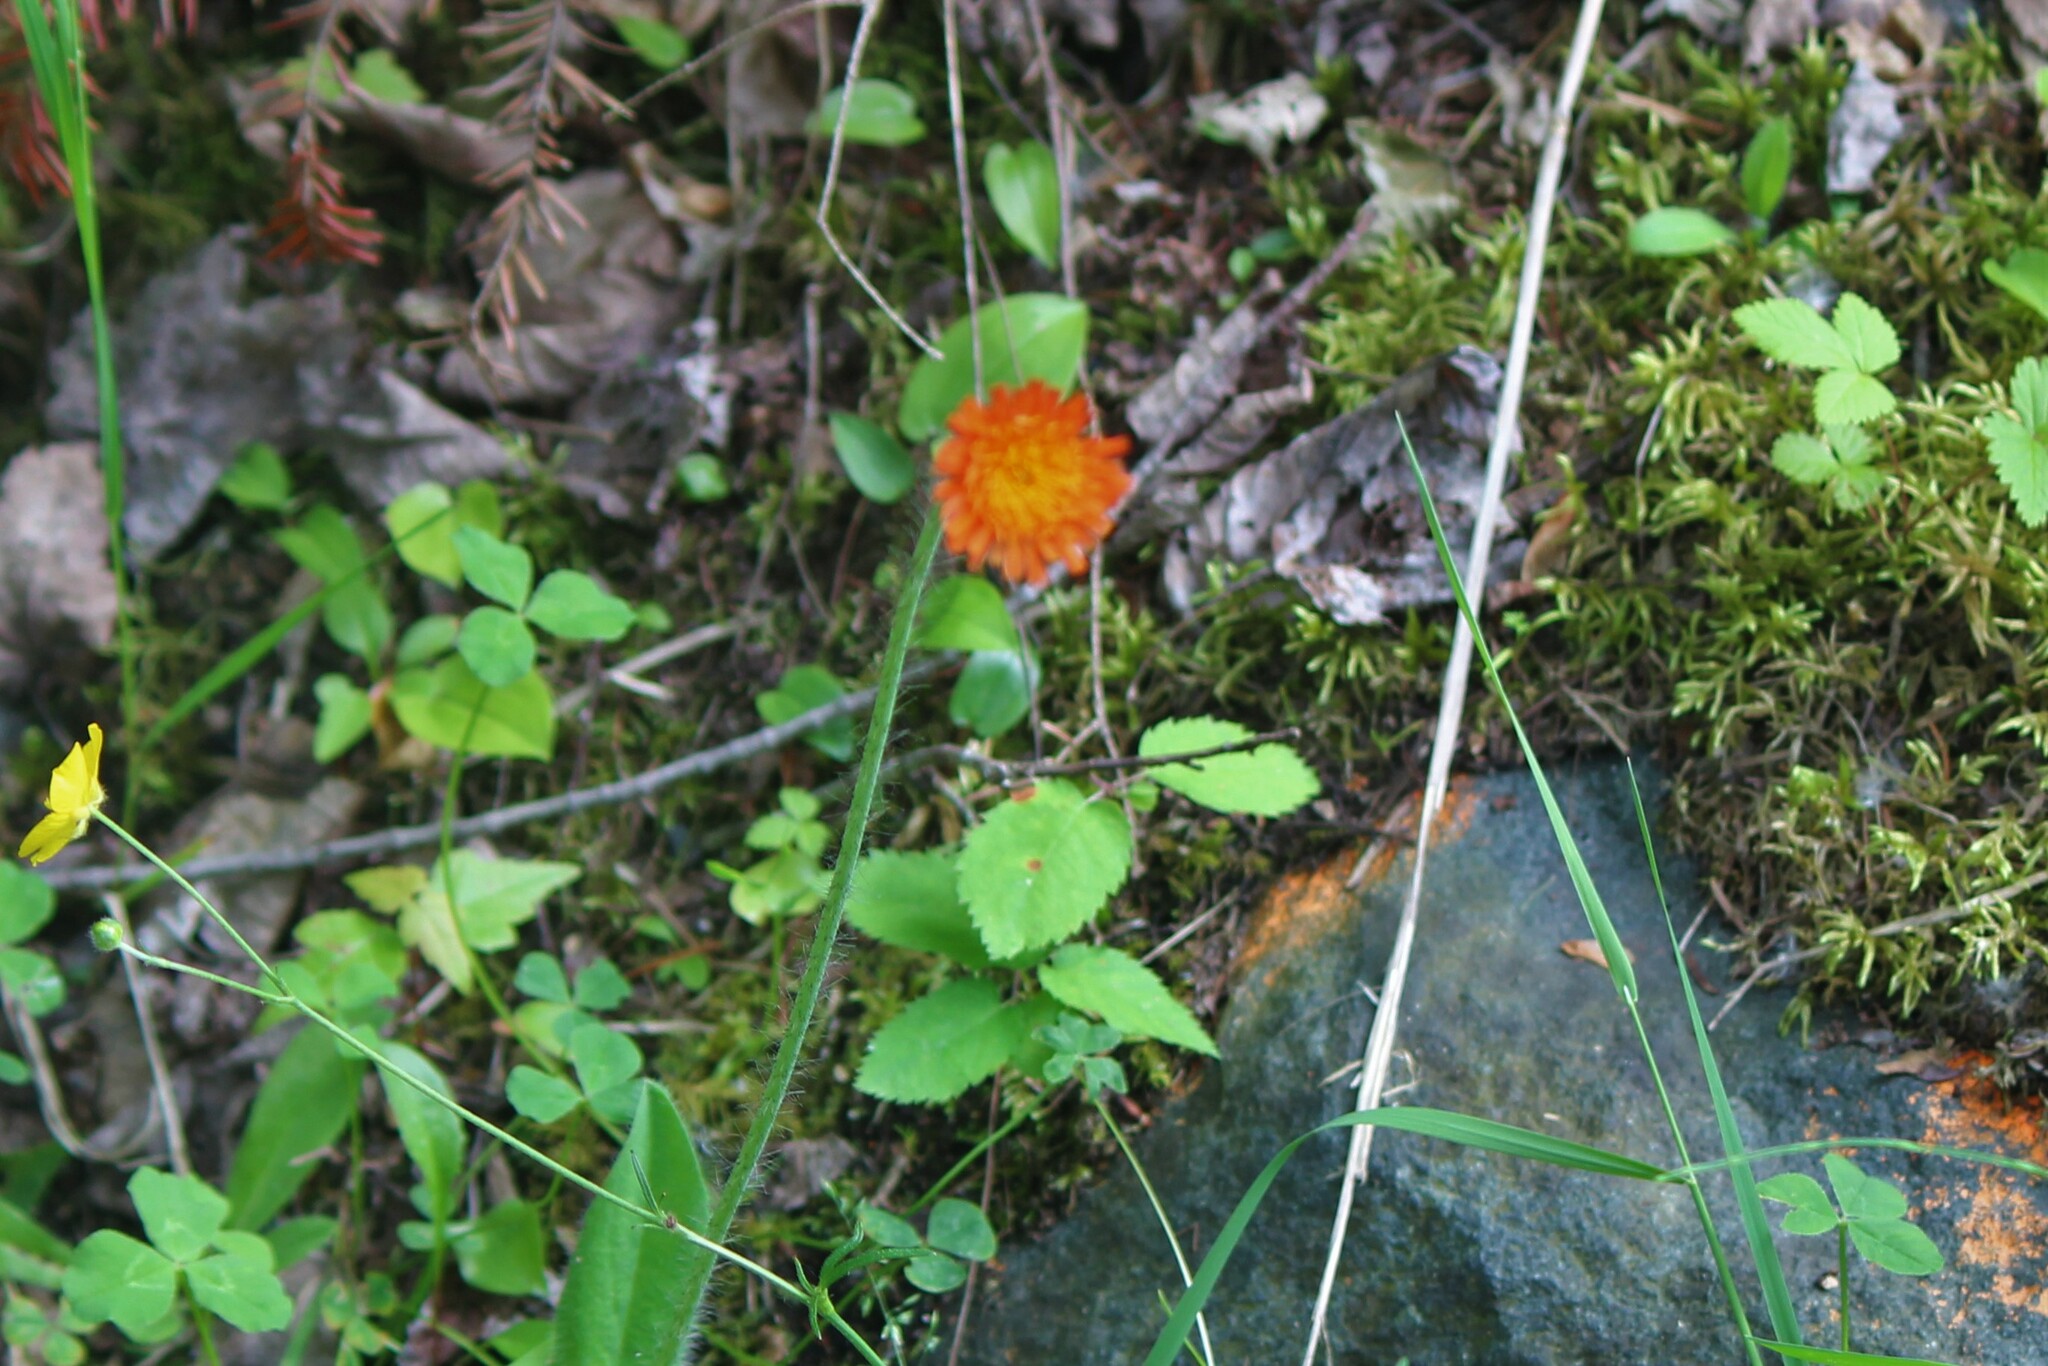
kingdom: Plantae
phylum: Tracheophyta
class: Magnoliopsida
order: Asterales
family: Asteraceae
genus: Pilosella
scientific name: Pilosella aurantiaca
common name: Fox-and-cubs
